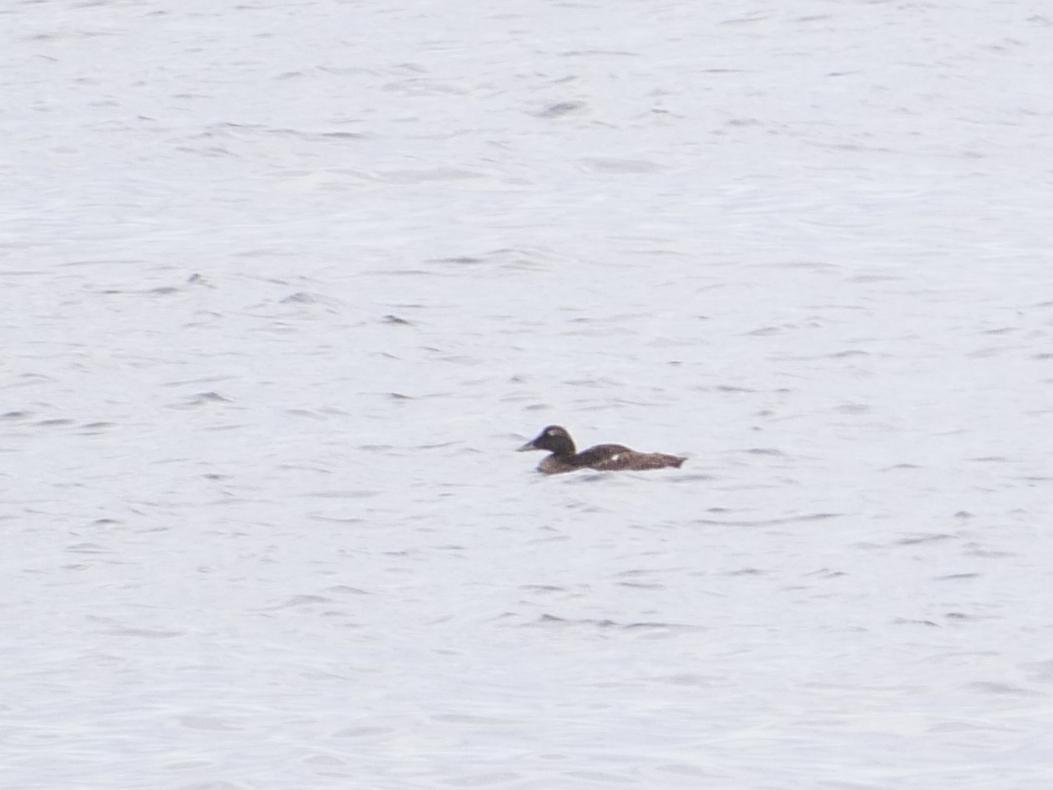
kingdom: Animalia
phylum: Chordata
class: Aves
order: Anseriformes
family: Anatidae
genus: Somateria
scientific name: Somateria mollissima
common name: Common eider
